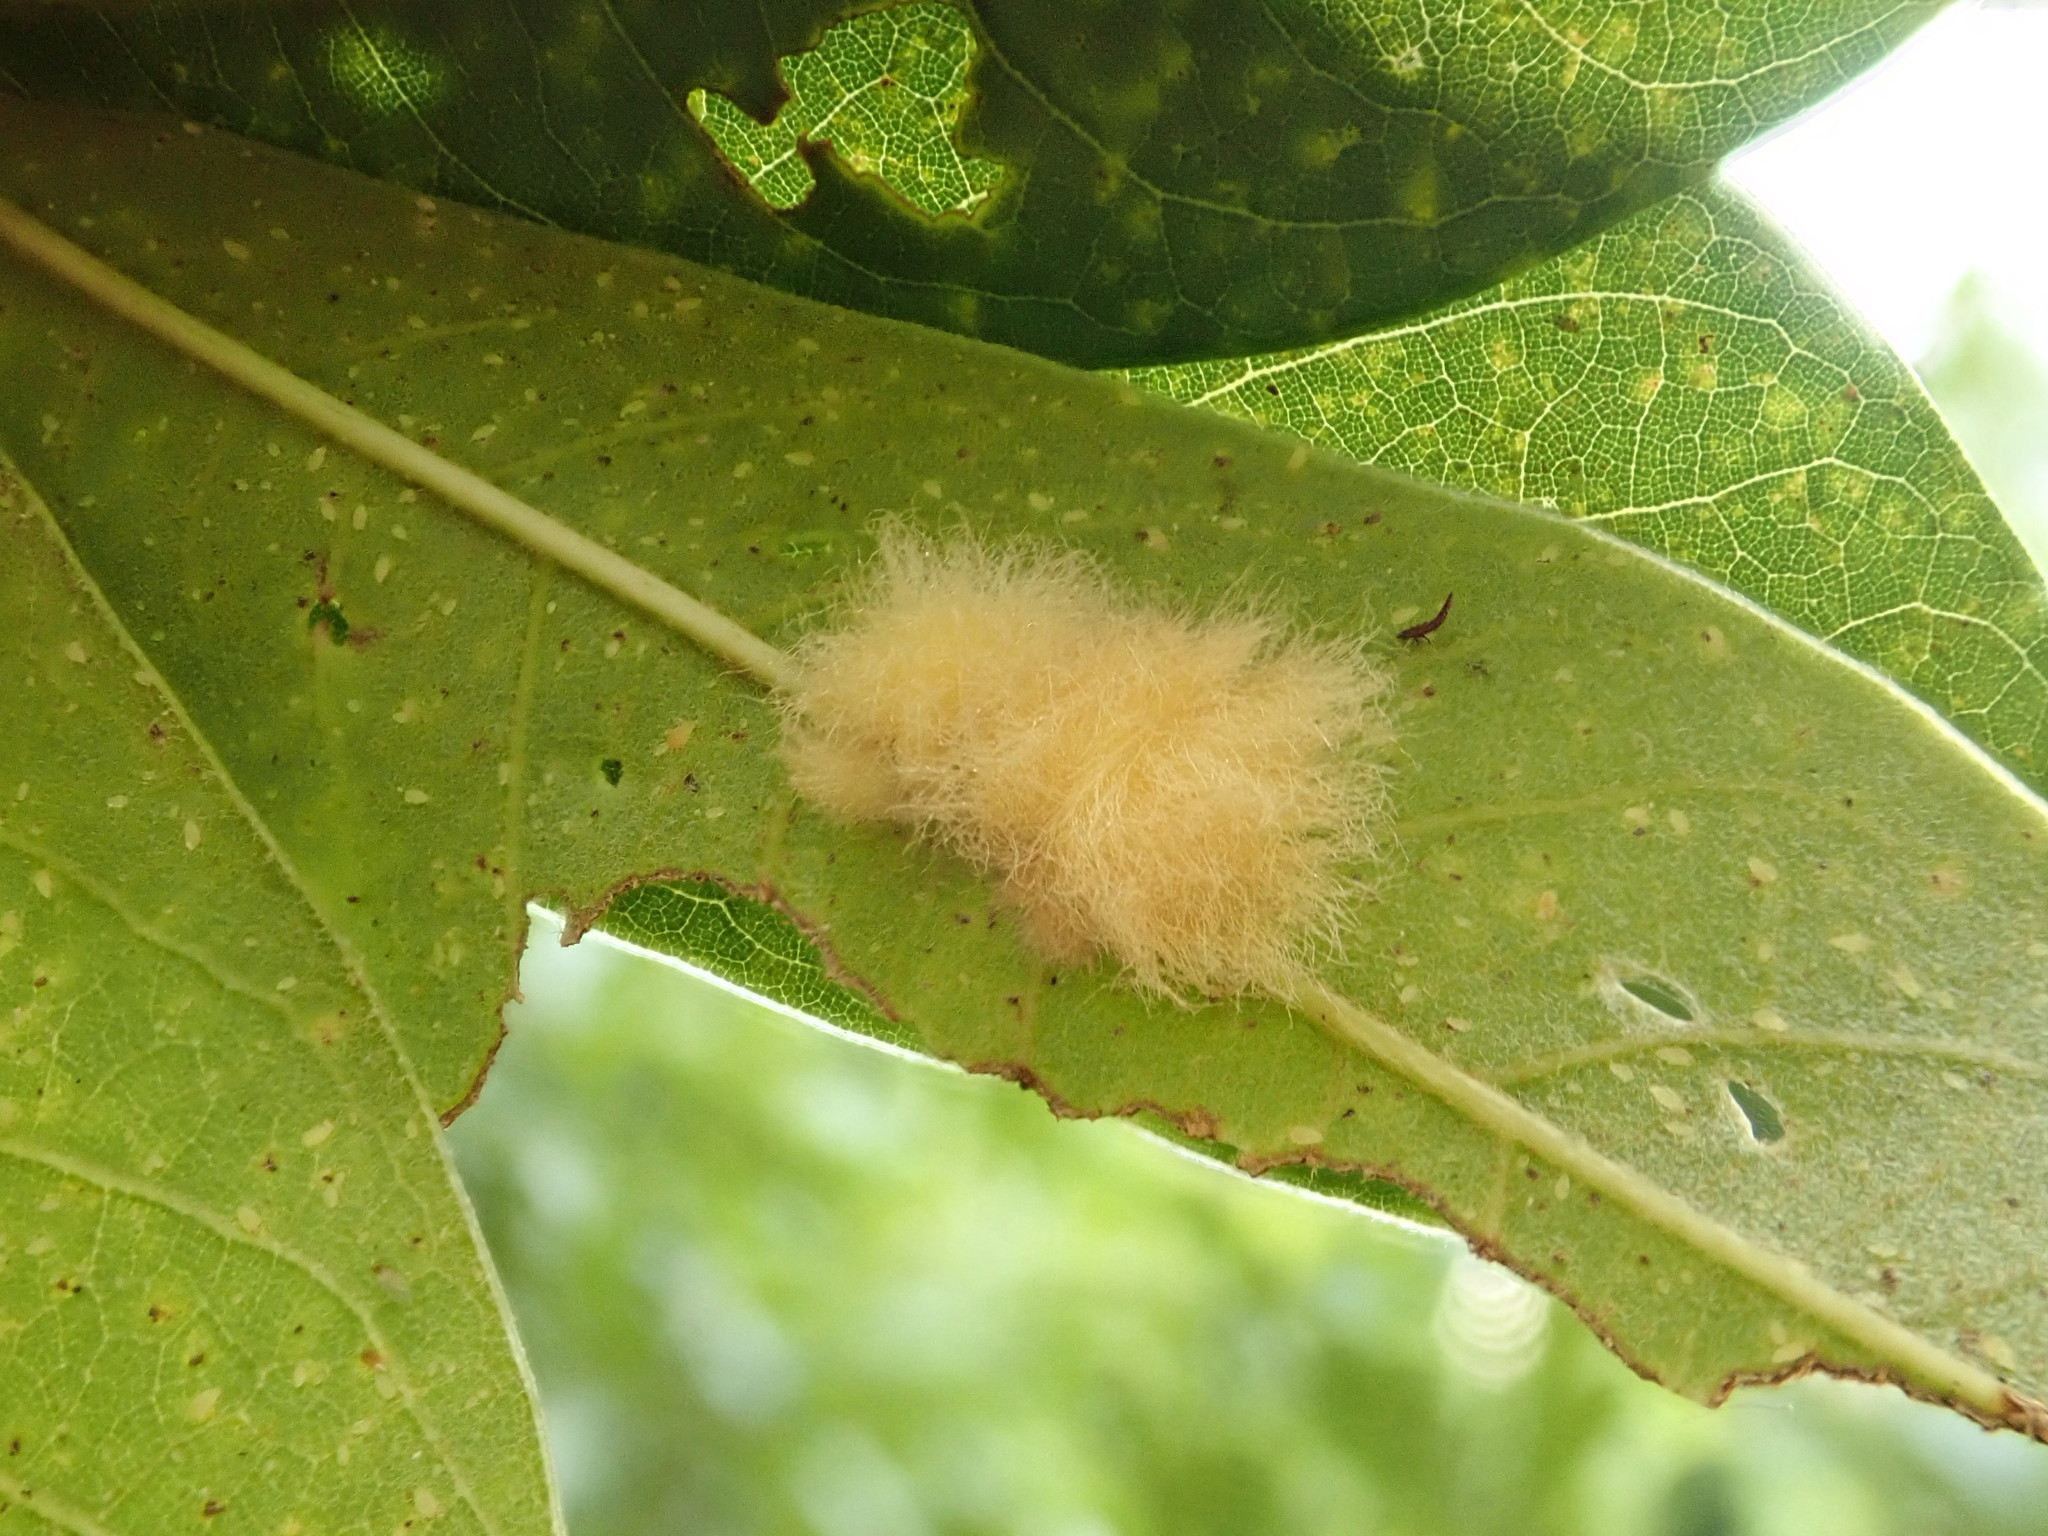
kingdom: Animalia
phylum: Arthropoda
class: Insecta
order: Hymenoptera
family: Cynipidae
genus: Neuroterus
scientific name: Neuroterus
